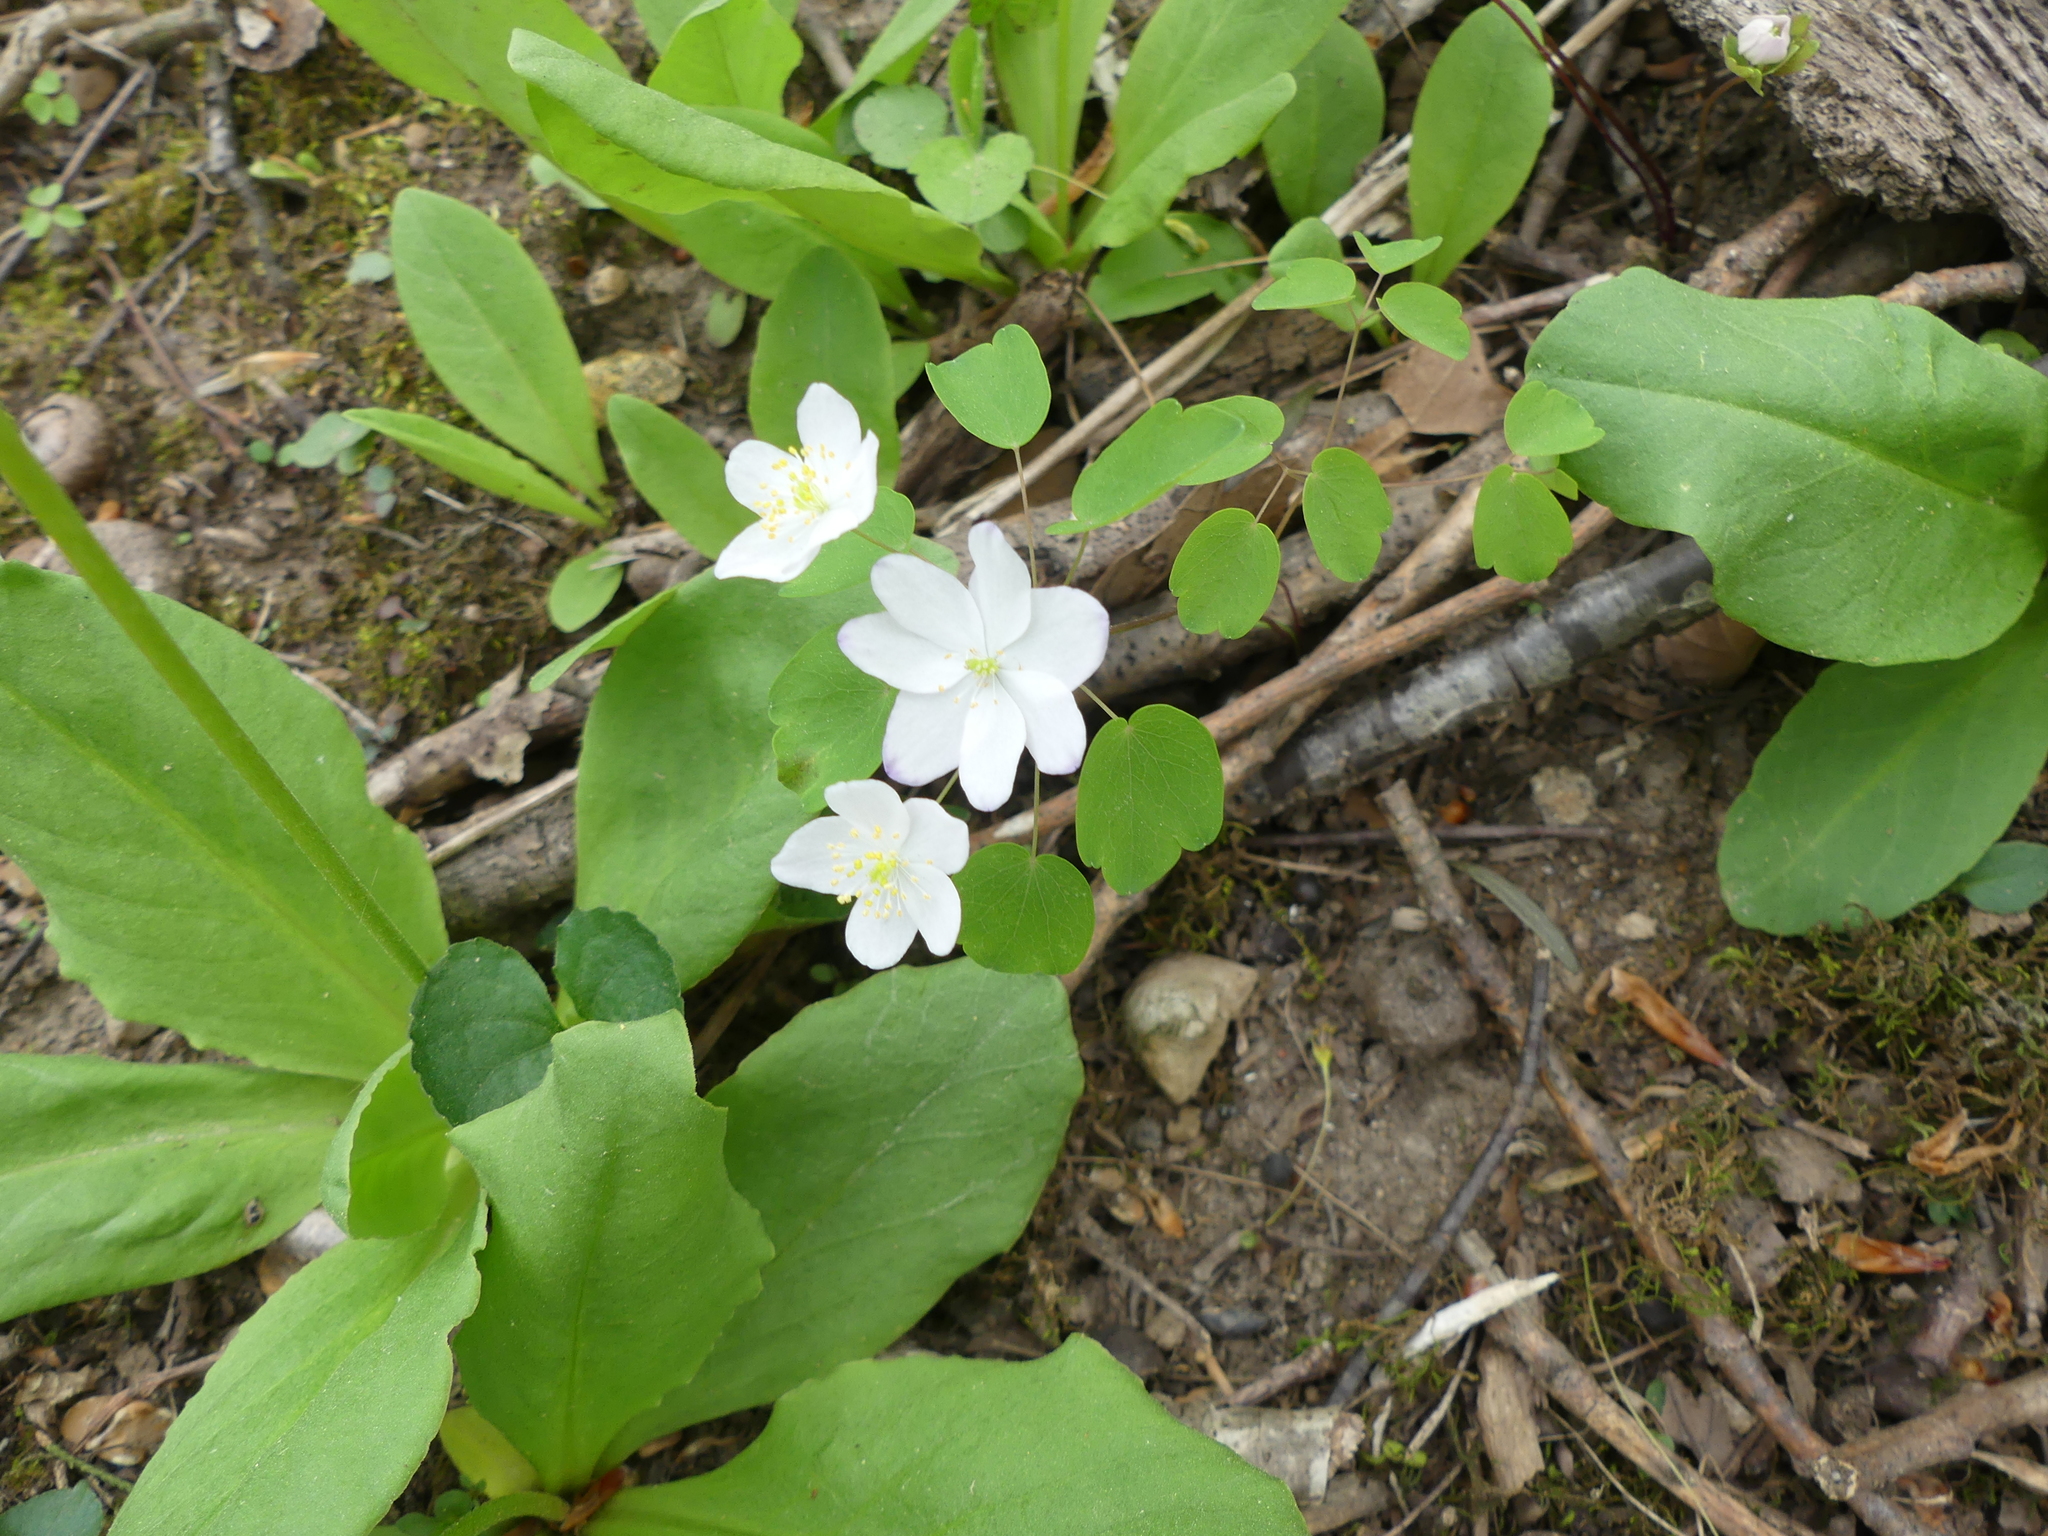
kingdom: Plantae
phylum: Tracheophyta
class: Magnoliopsida
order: Ranunculales
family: Ranunculaceae
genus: Thalictrum
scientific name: Thalictrum thalictroides
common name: Rue-anemone
